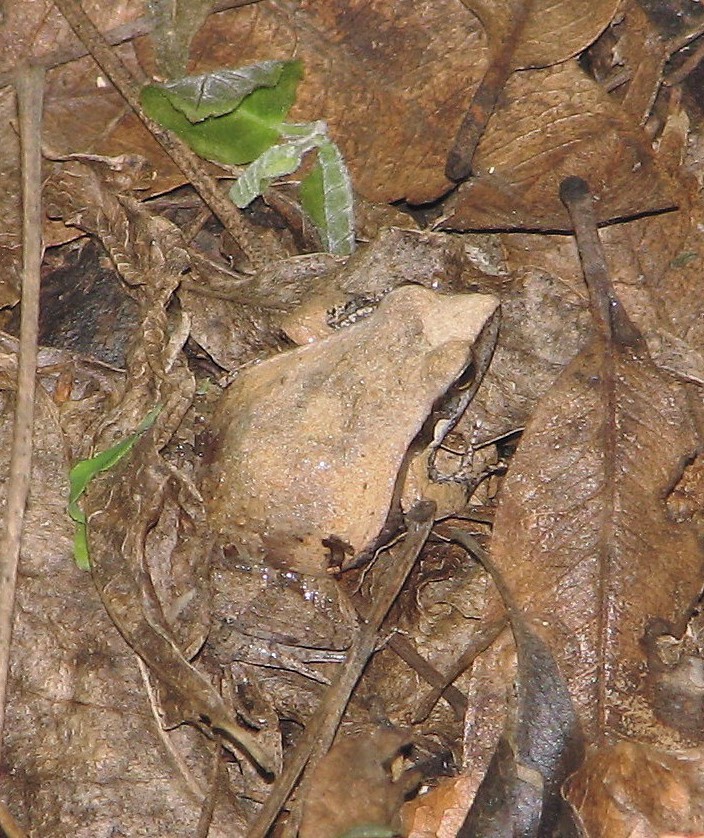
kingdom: Animalia
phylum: Chordata
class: Amphibia
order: Anura
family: Leptodactylidae
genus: Physalaemus
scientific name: Physalaemus albonotatus
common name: Menwig frog
